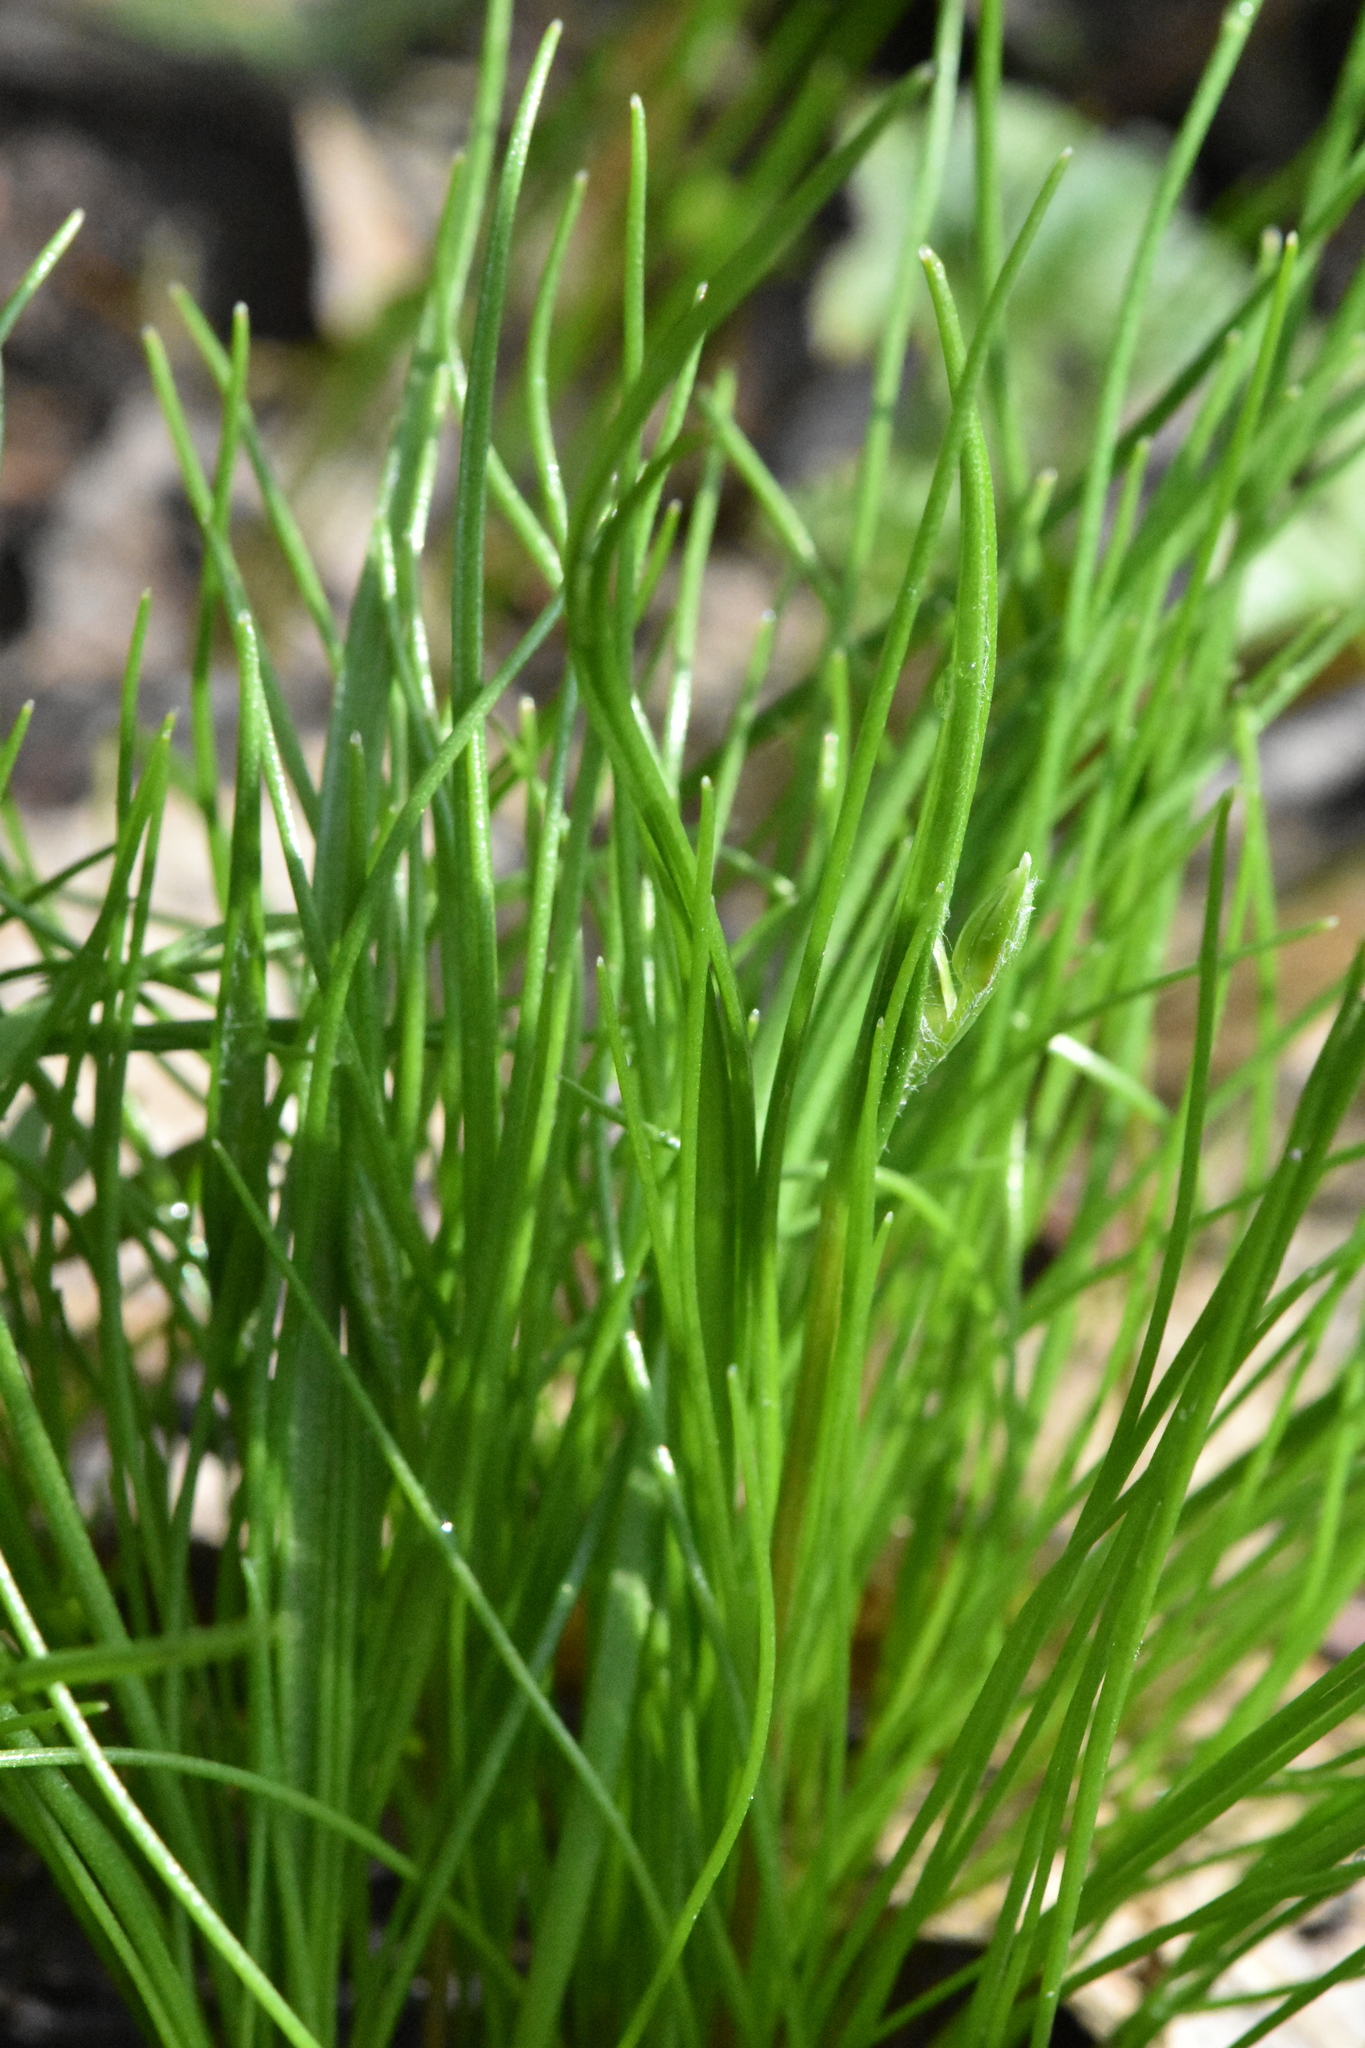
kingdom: Plantae
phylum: Tracheophyta
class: Liliopsida
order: Liliales
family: Liliaceae
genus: Gagea
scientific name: Gagea minima
